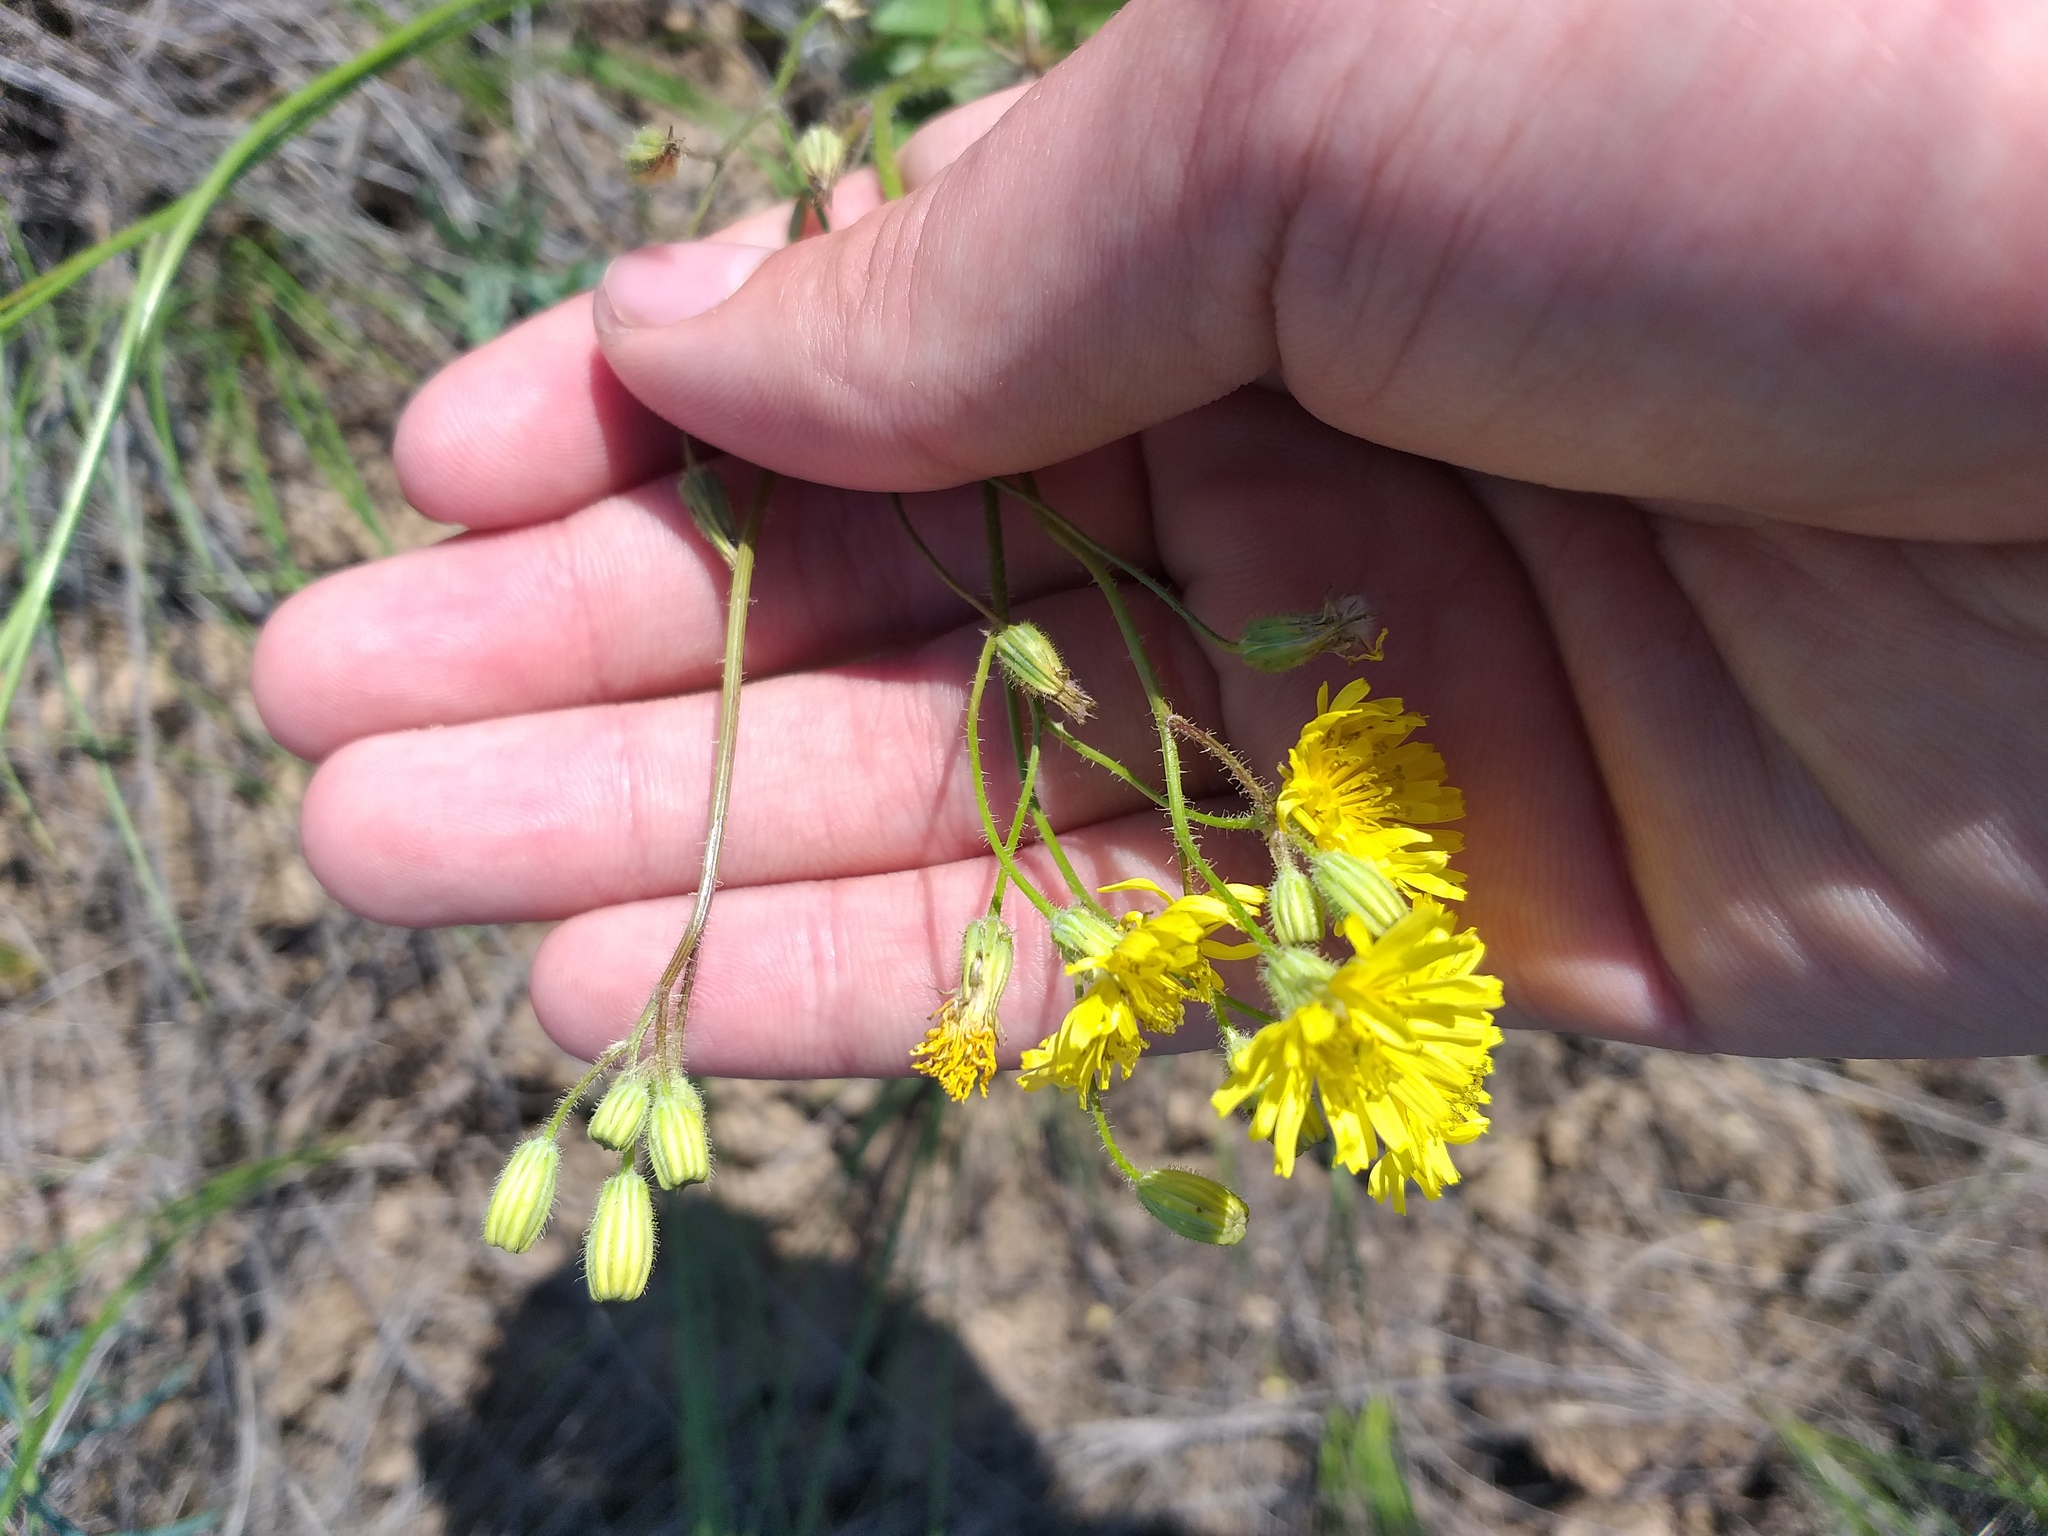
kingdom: Plantae
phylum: Tracheophyta
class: Magnoliopsida
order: Asterales
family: Asteraceae
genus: Crepis
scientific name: Crepis sancta
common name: Hawk's-beard
